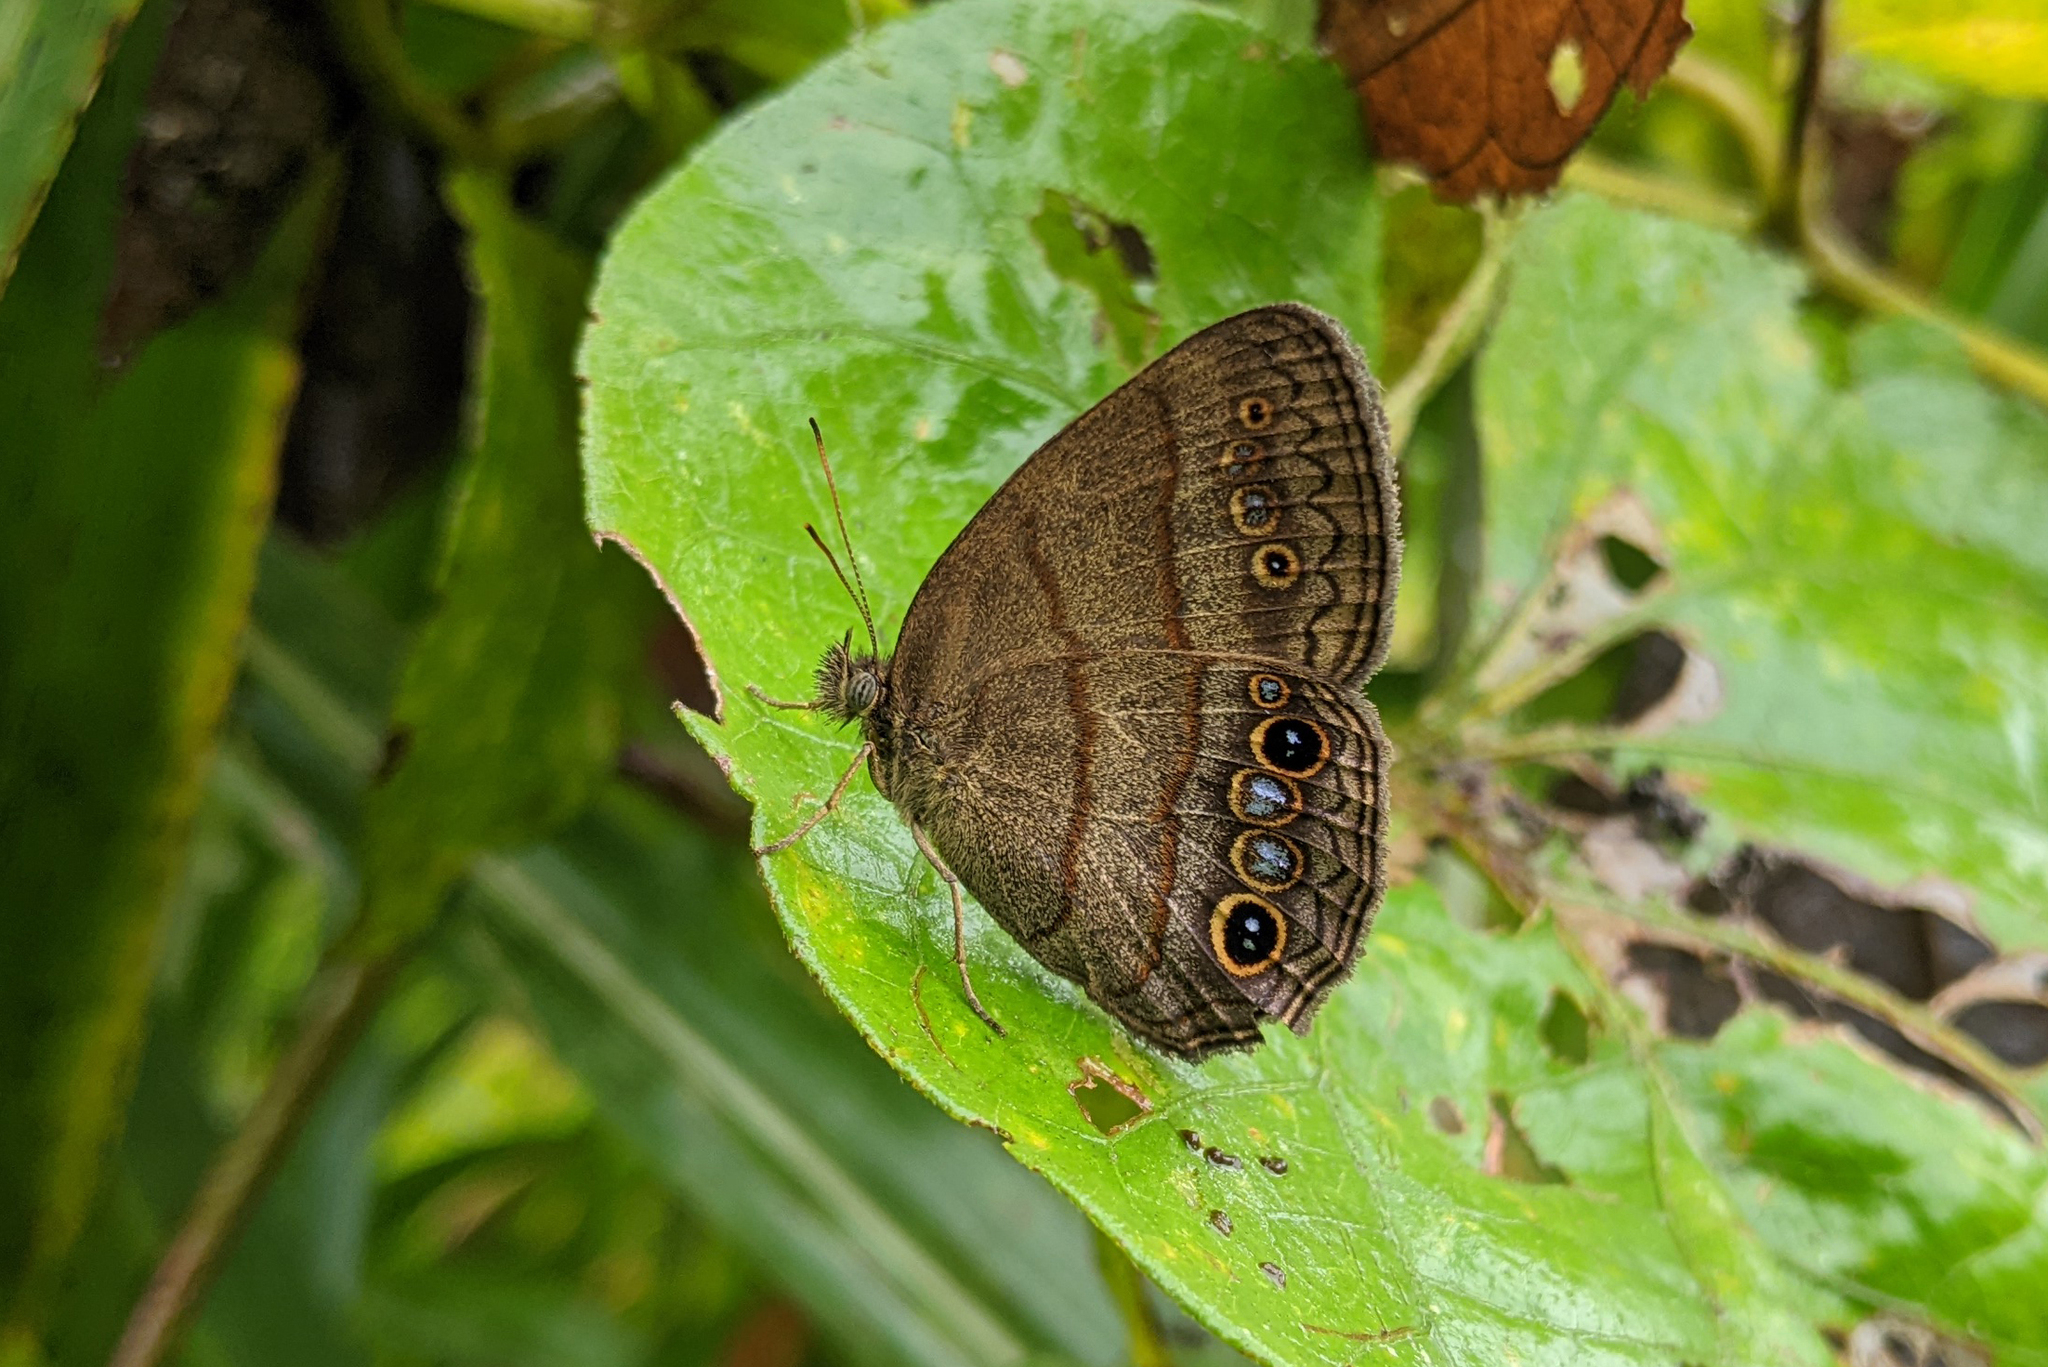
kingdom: Animalia
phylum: Arthropoda
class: Insecta
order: Lepidoptera
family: Nymphalidae
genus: Malaveria
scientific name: Malaveria
